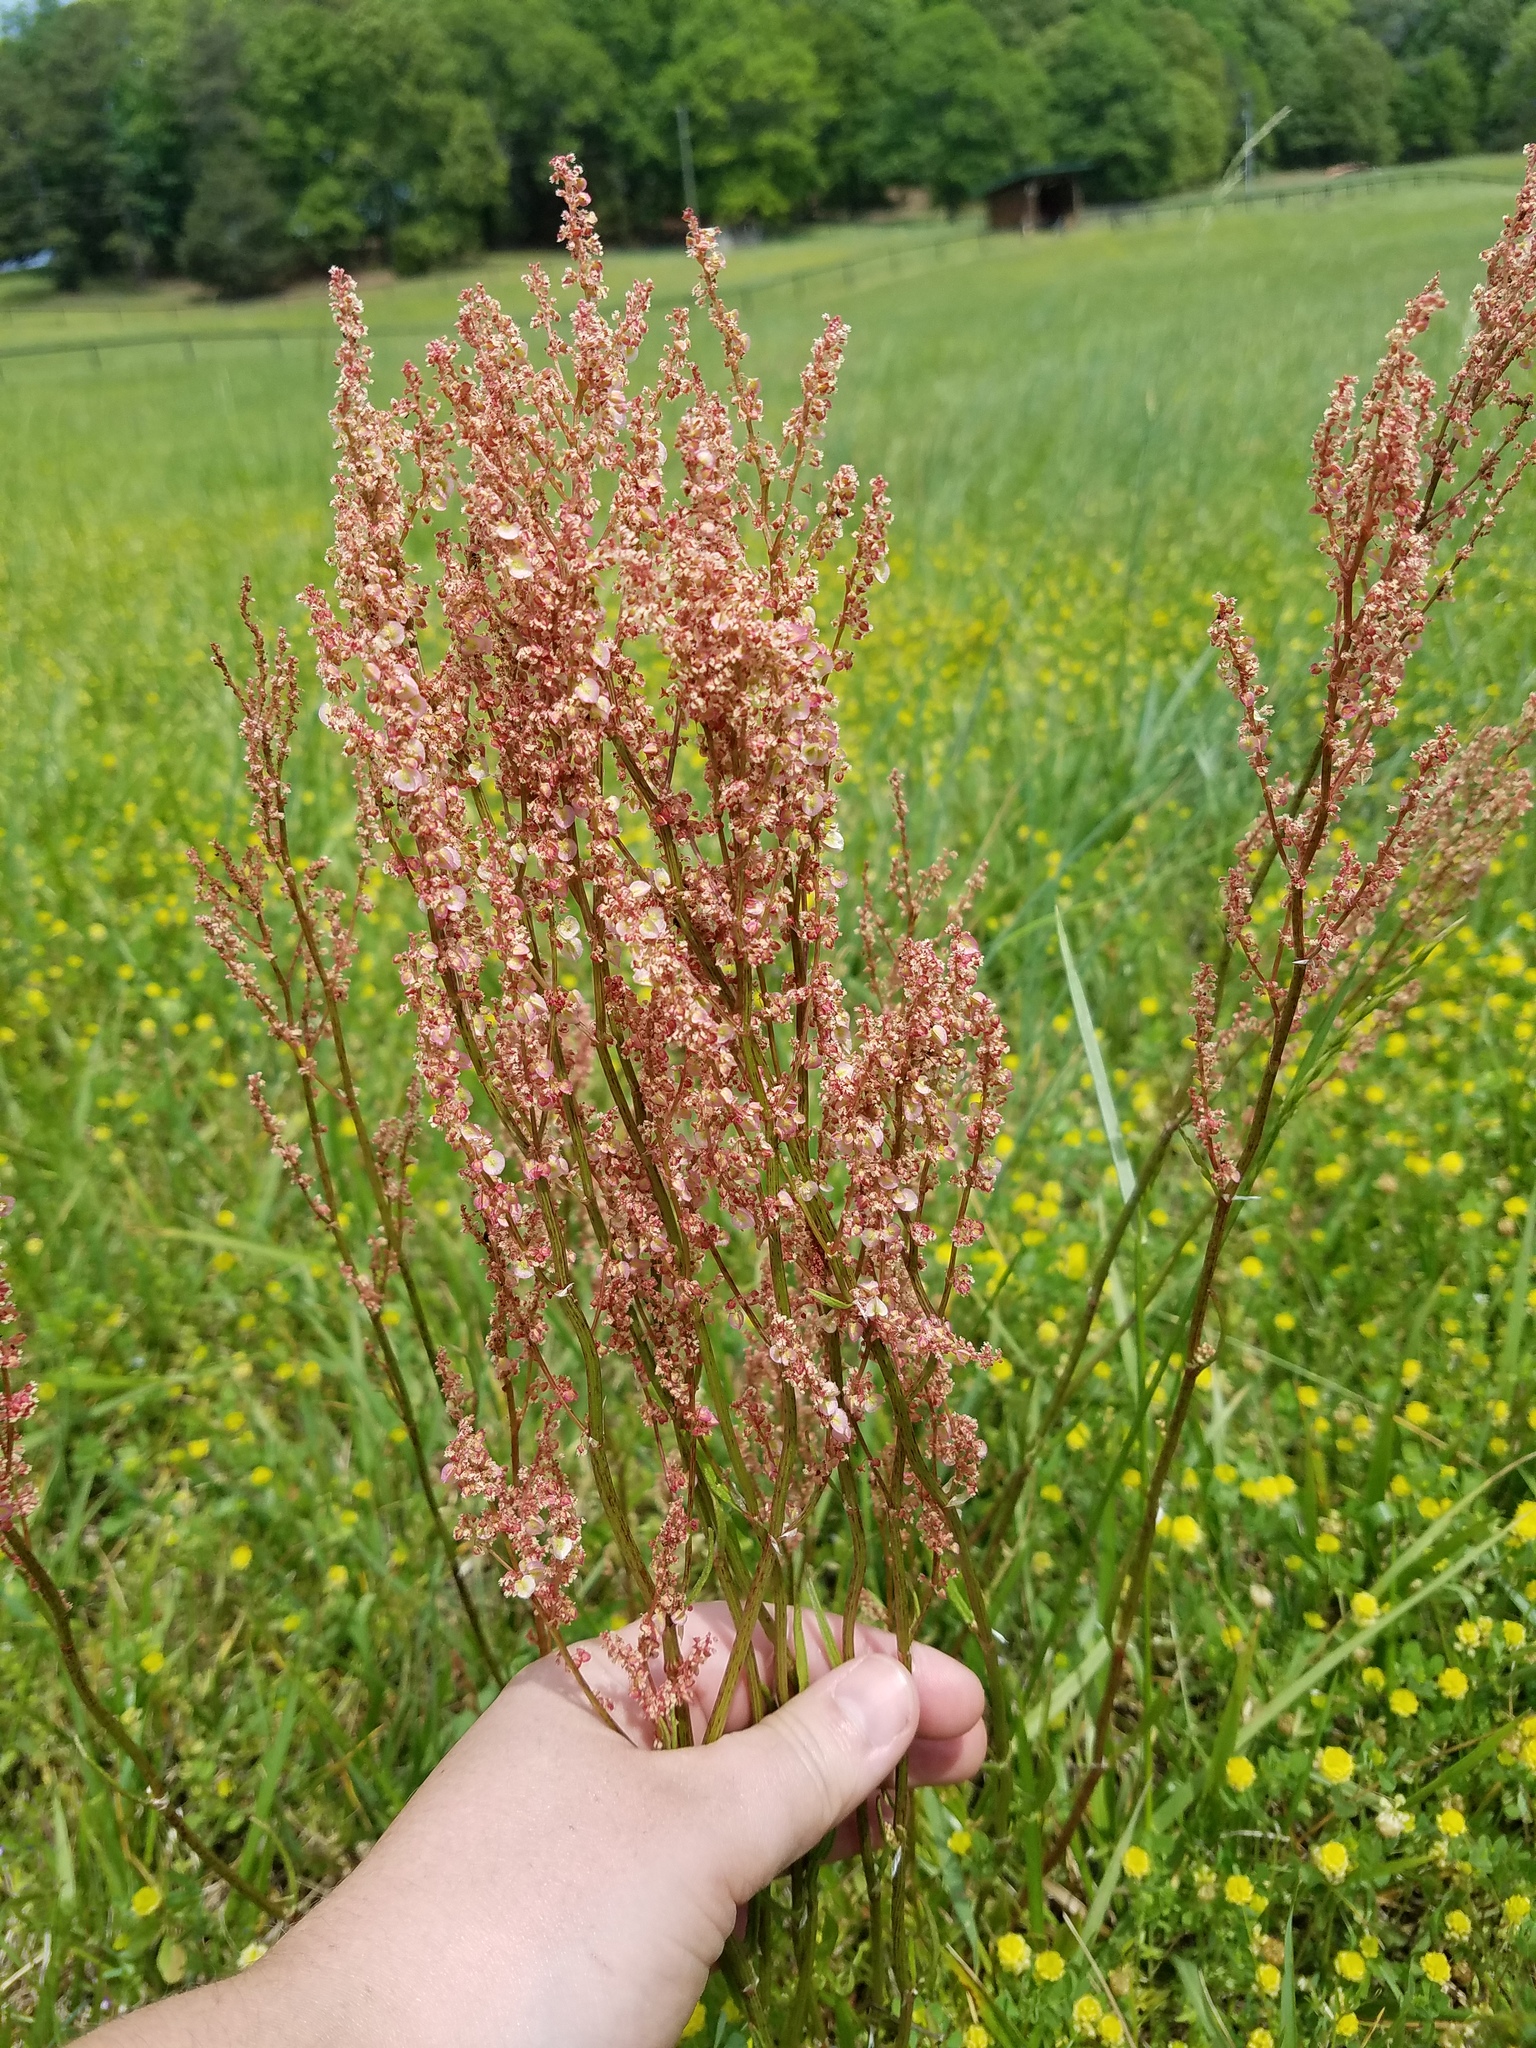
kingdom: Plantae
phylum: Tracheophyta
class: Magnoliopsida
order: Caryophyllales
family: Polygonaceae
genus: Rumex
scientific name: Rumex hastatulus
